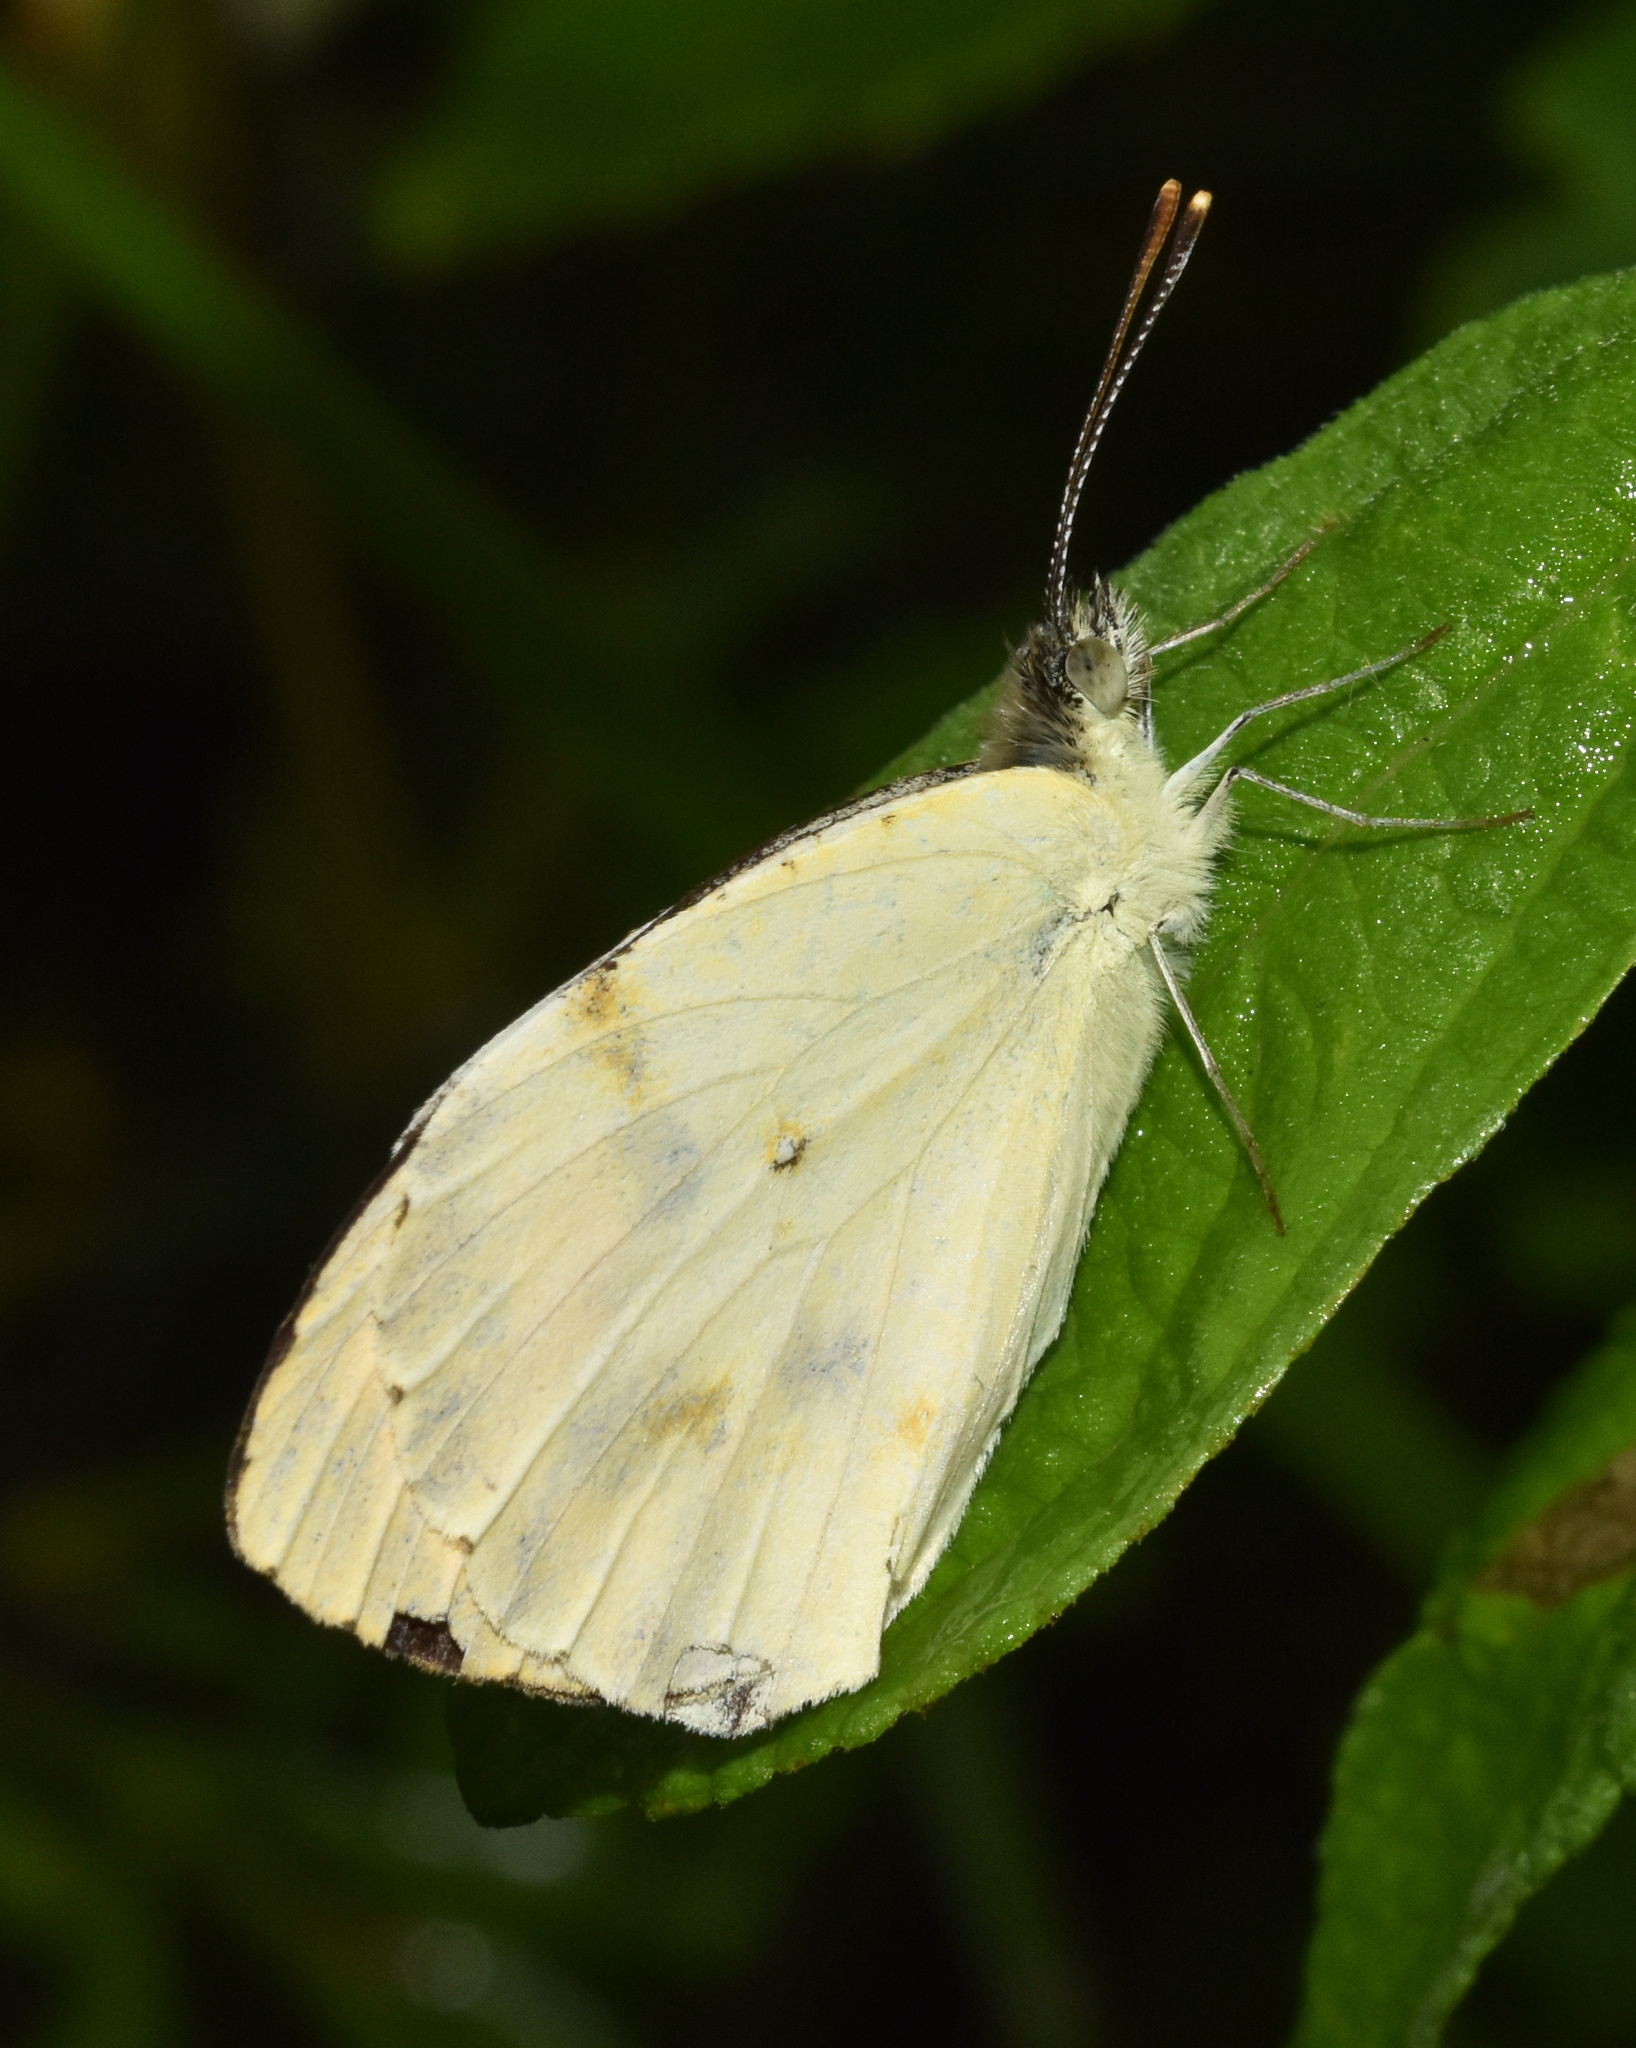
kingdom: Animalia
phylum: Arthropoda
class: Insecta
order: Lepidoptera
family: Pieridae
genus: Colotis
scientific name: Colotis auxo
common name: Sulphur orange tip
